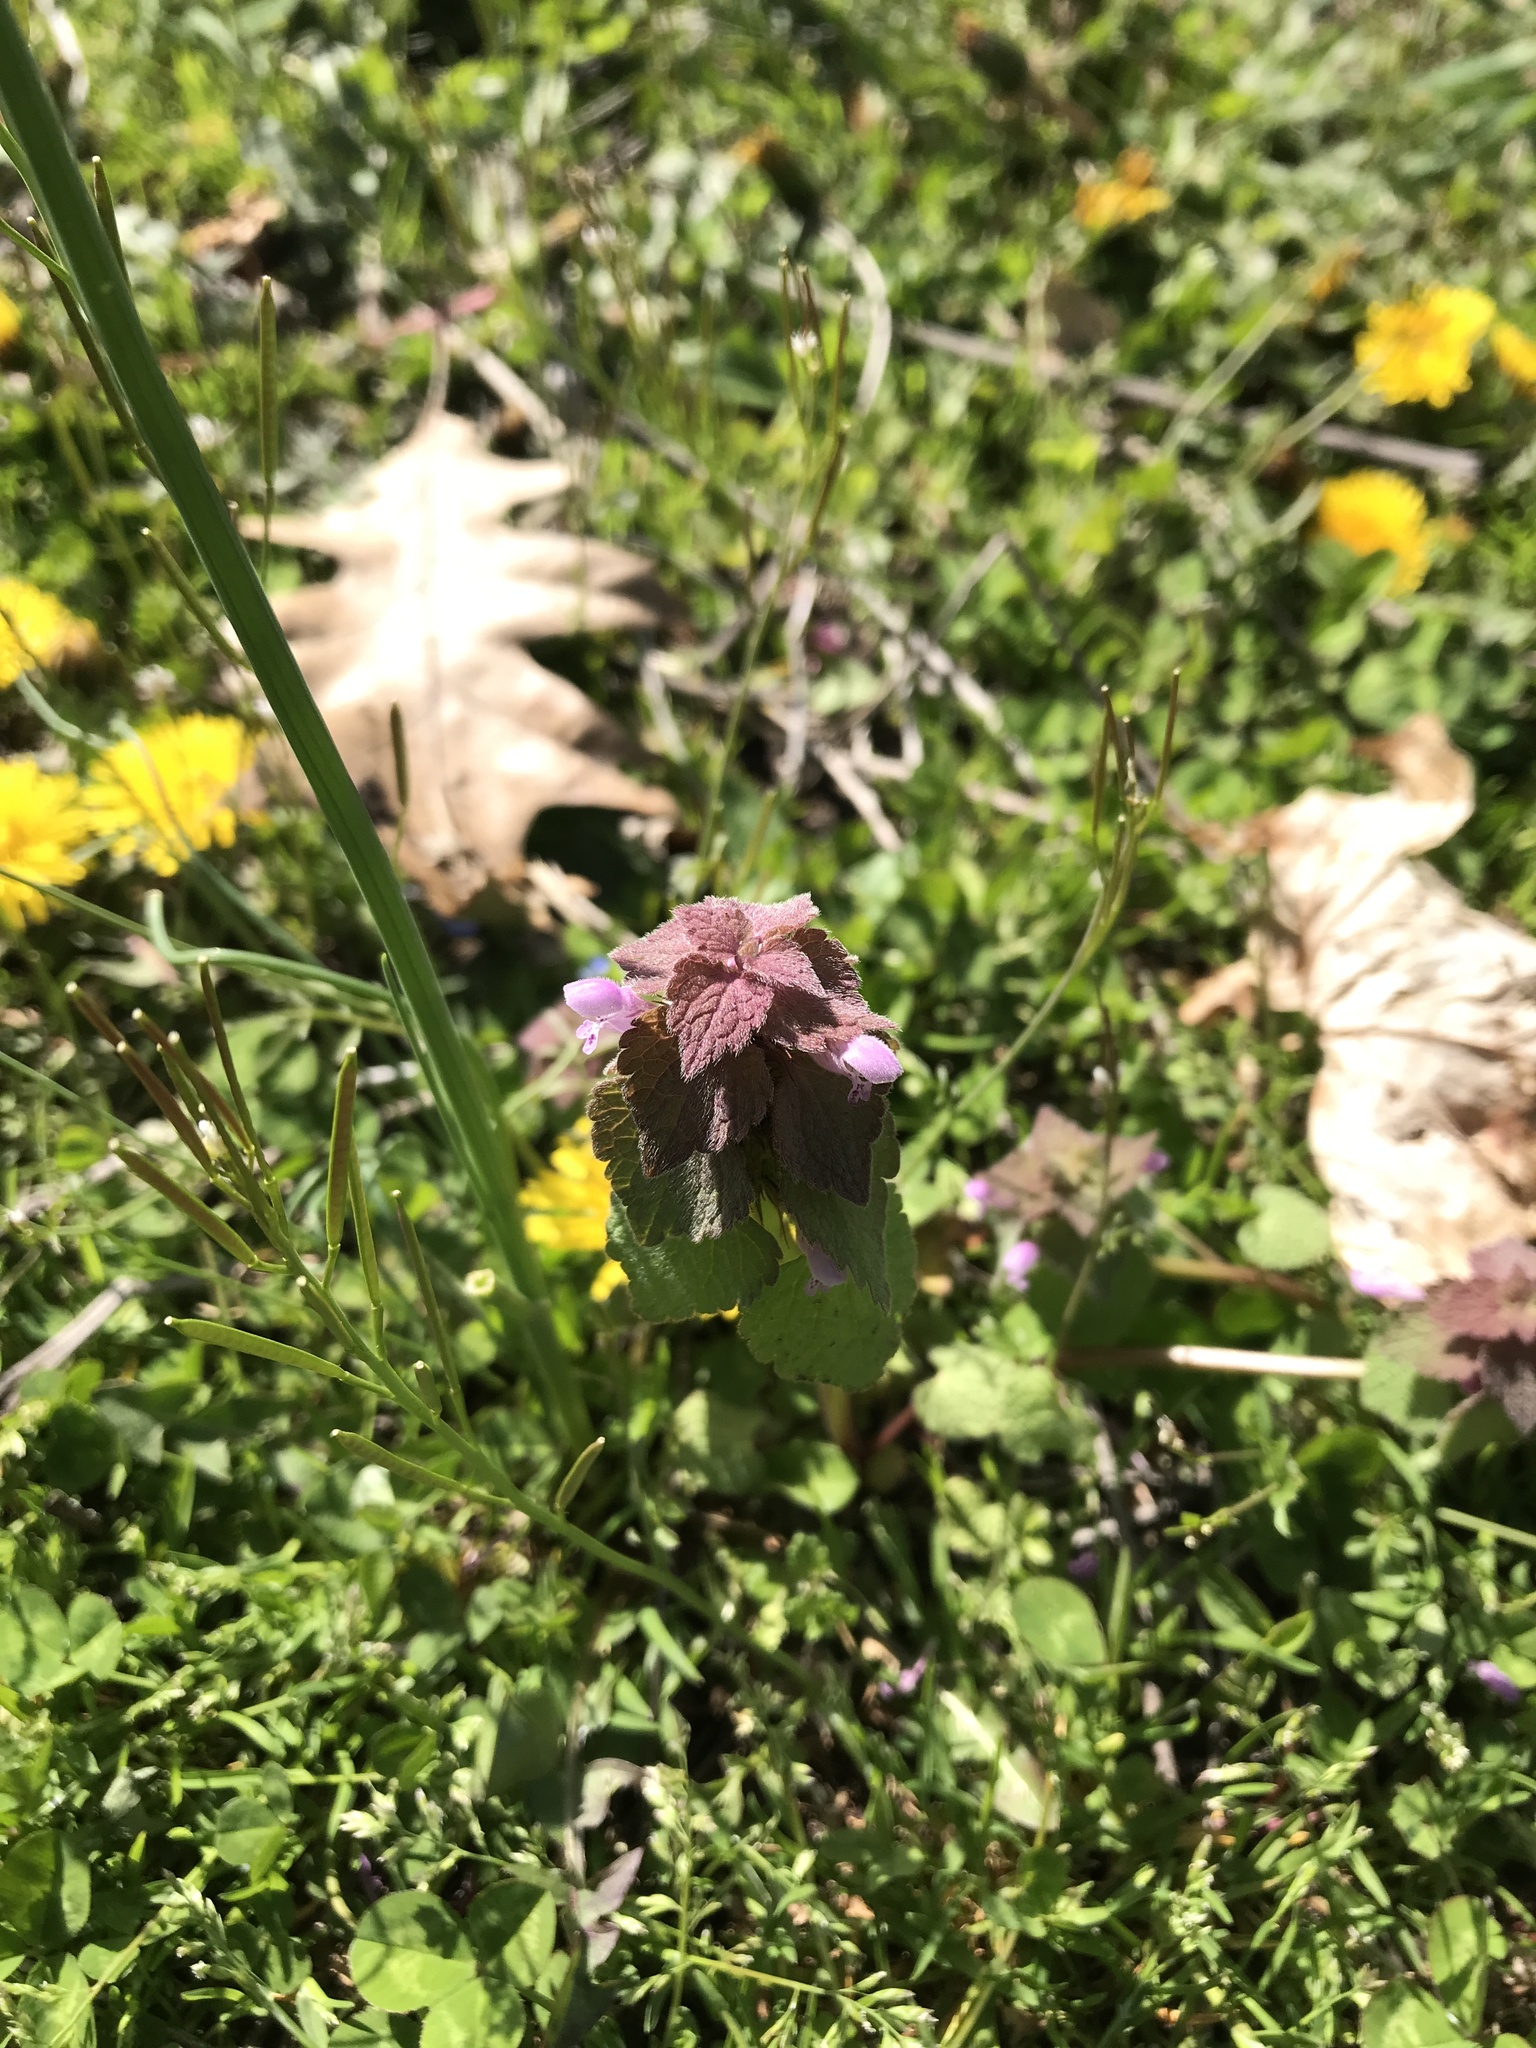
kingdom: Plantae
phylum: Tracheophyta
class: Magnoliopsida
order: Lamiales
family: Lamiaceae
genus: Lamium
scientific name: Lamium purpureum
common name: Red dead-nettle
